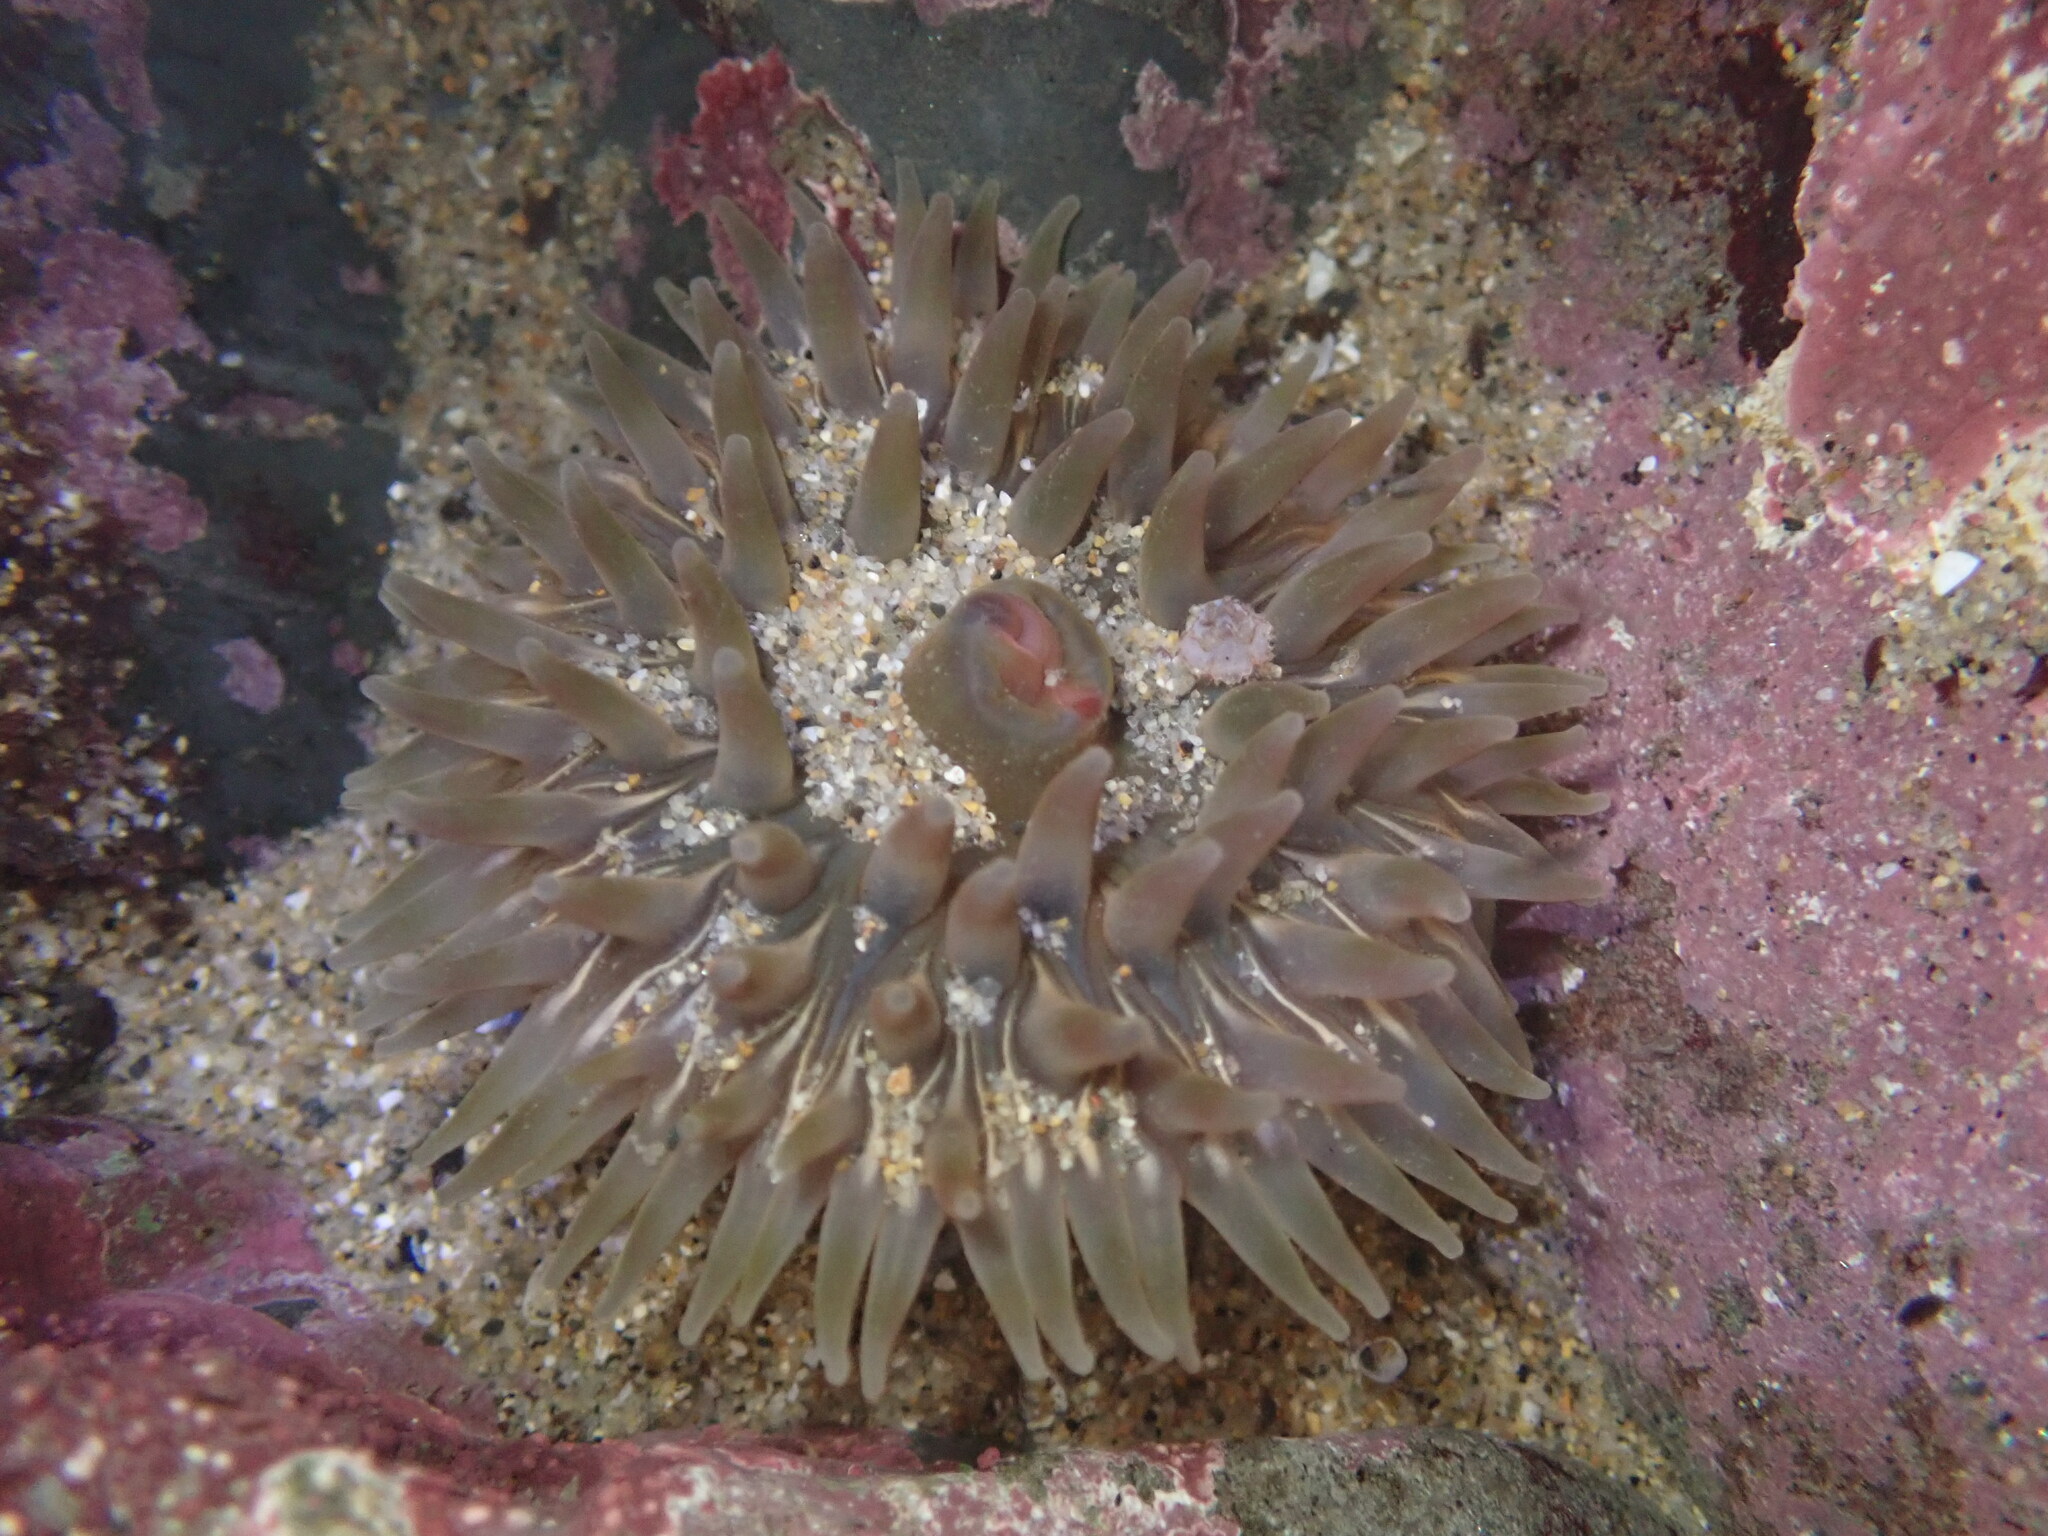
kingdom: Animalia
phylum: Cnidaria
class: Anthozoa
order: Actiniaria
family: Actiniidae
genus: Urticina
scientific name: Urticina clandestina
